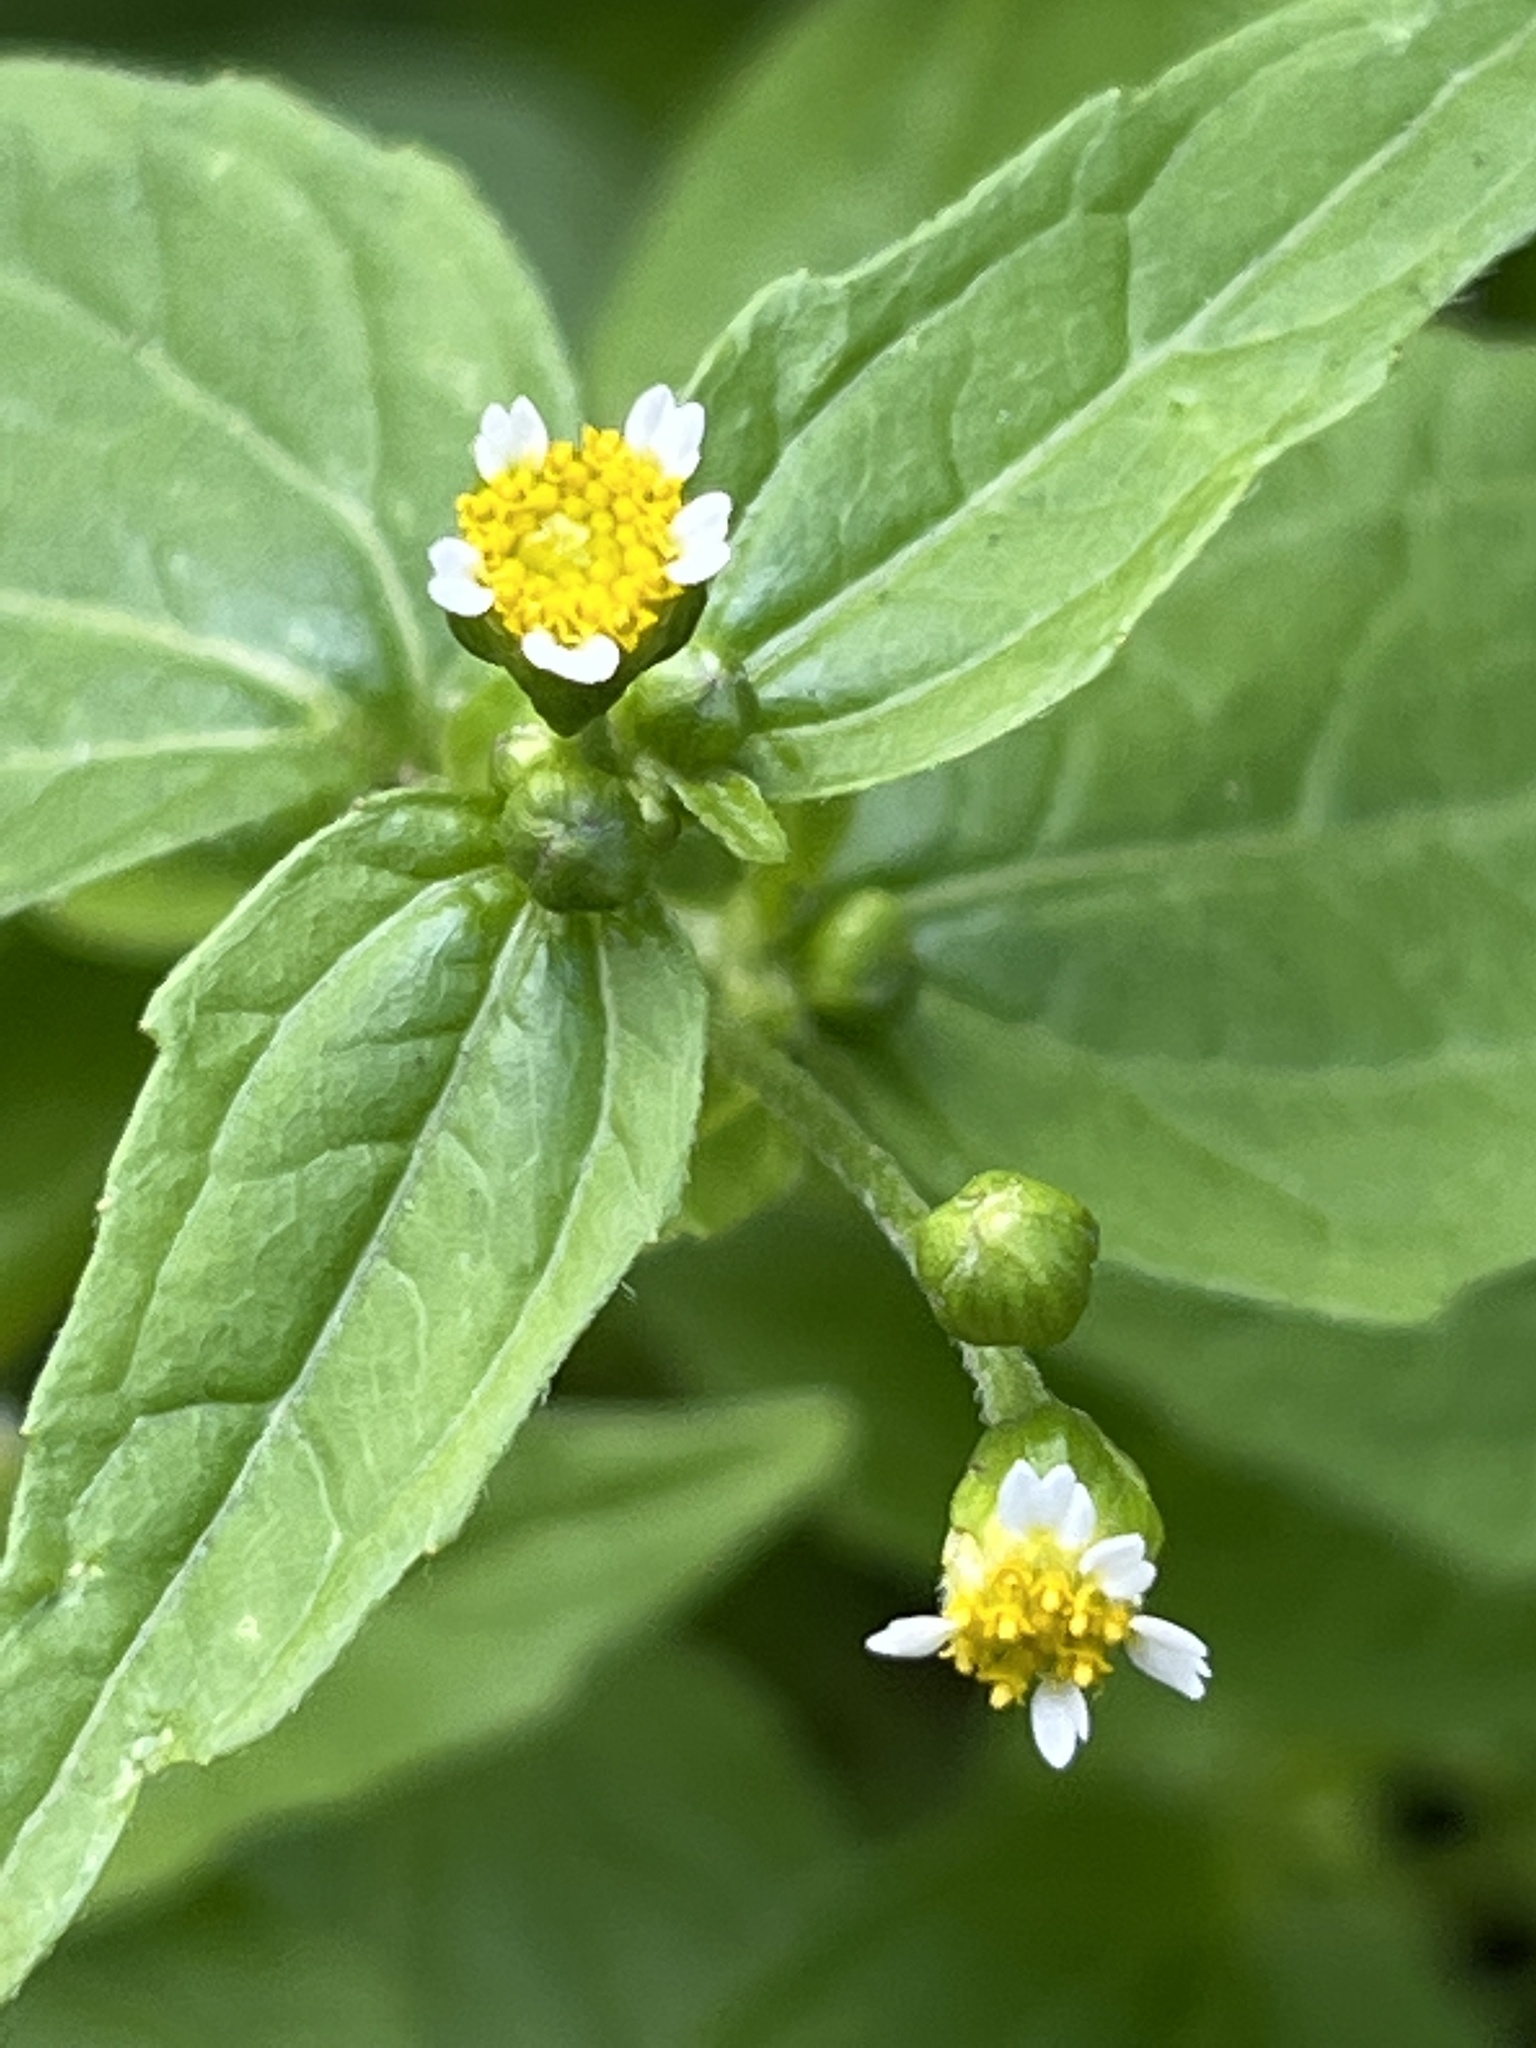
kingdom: Plantae
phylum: Tracheophyta
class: Magnoliopsida
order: Asterales
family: Asteraceae
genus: Galinsoga
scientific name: Galinsoga parviflora
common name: Gallant soldier
